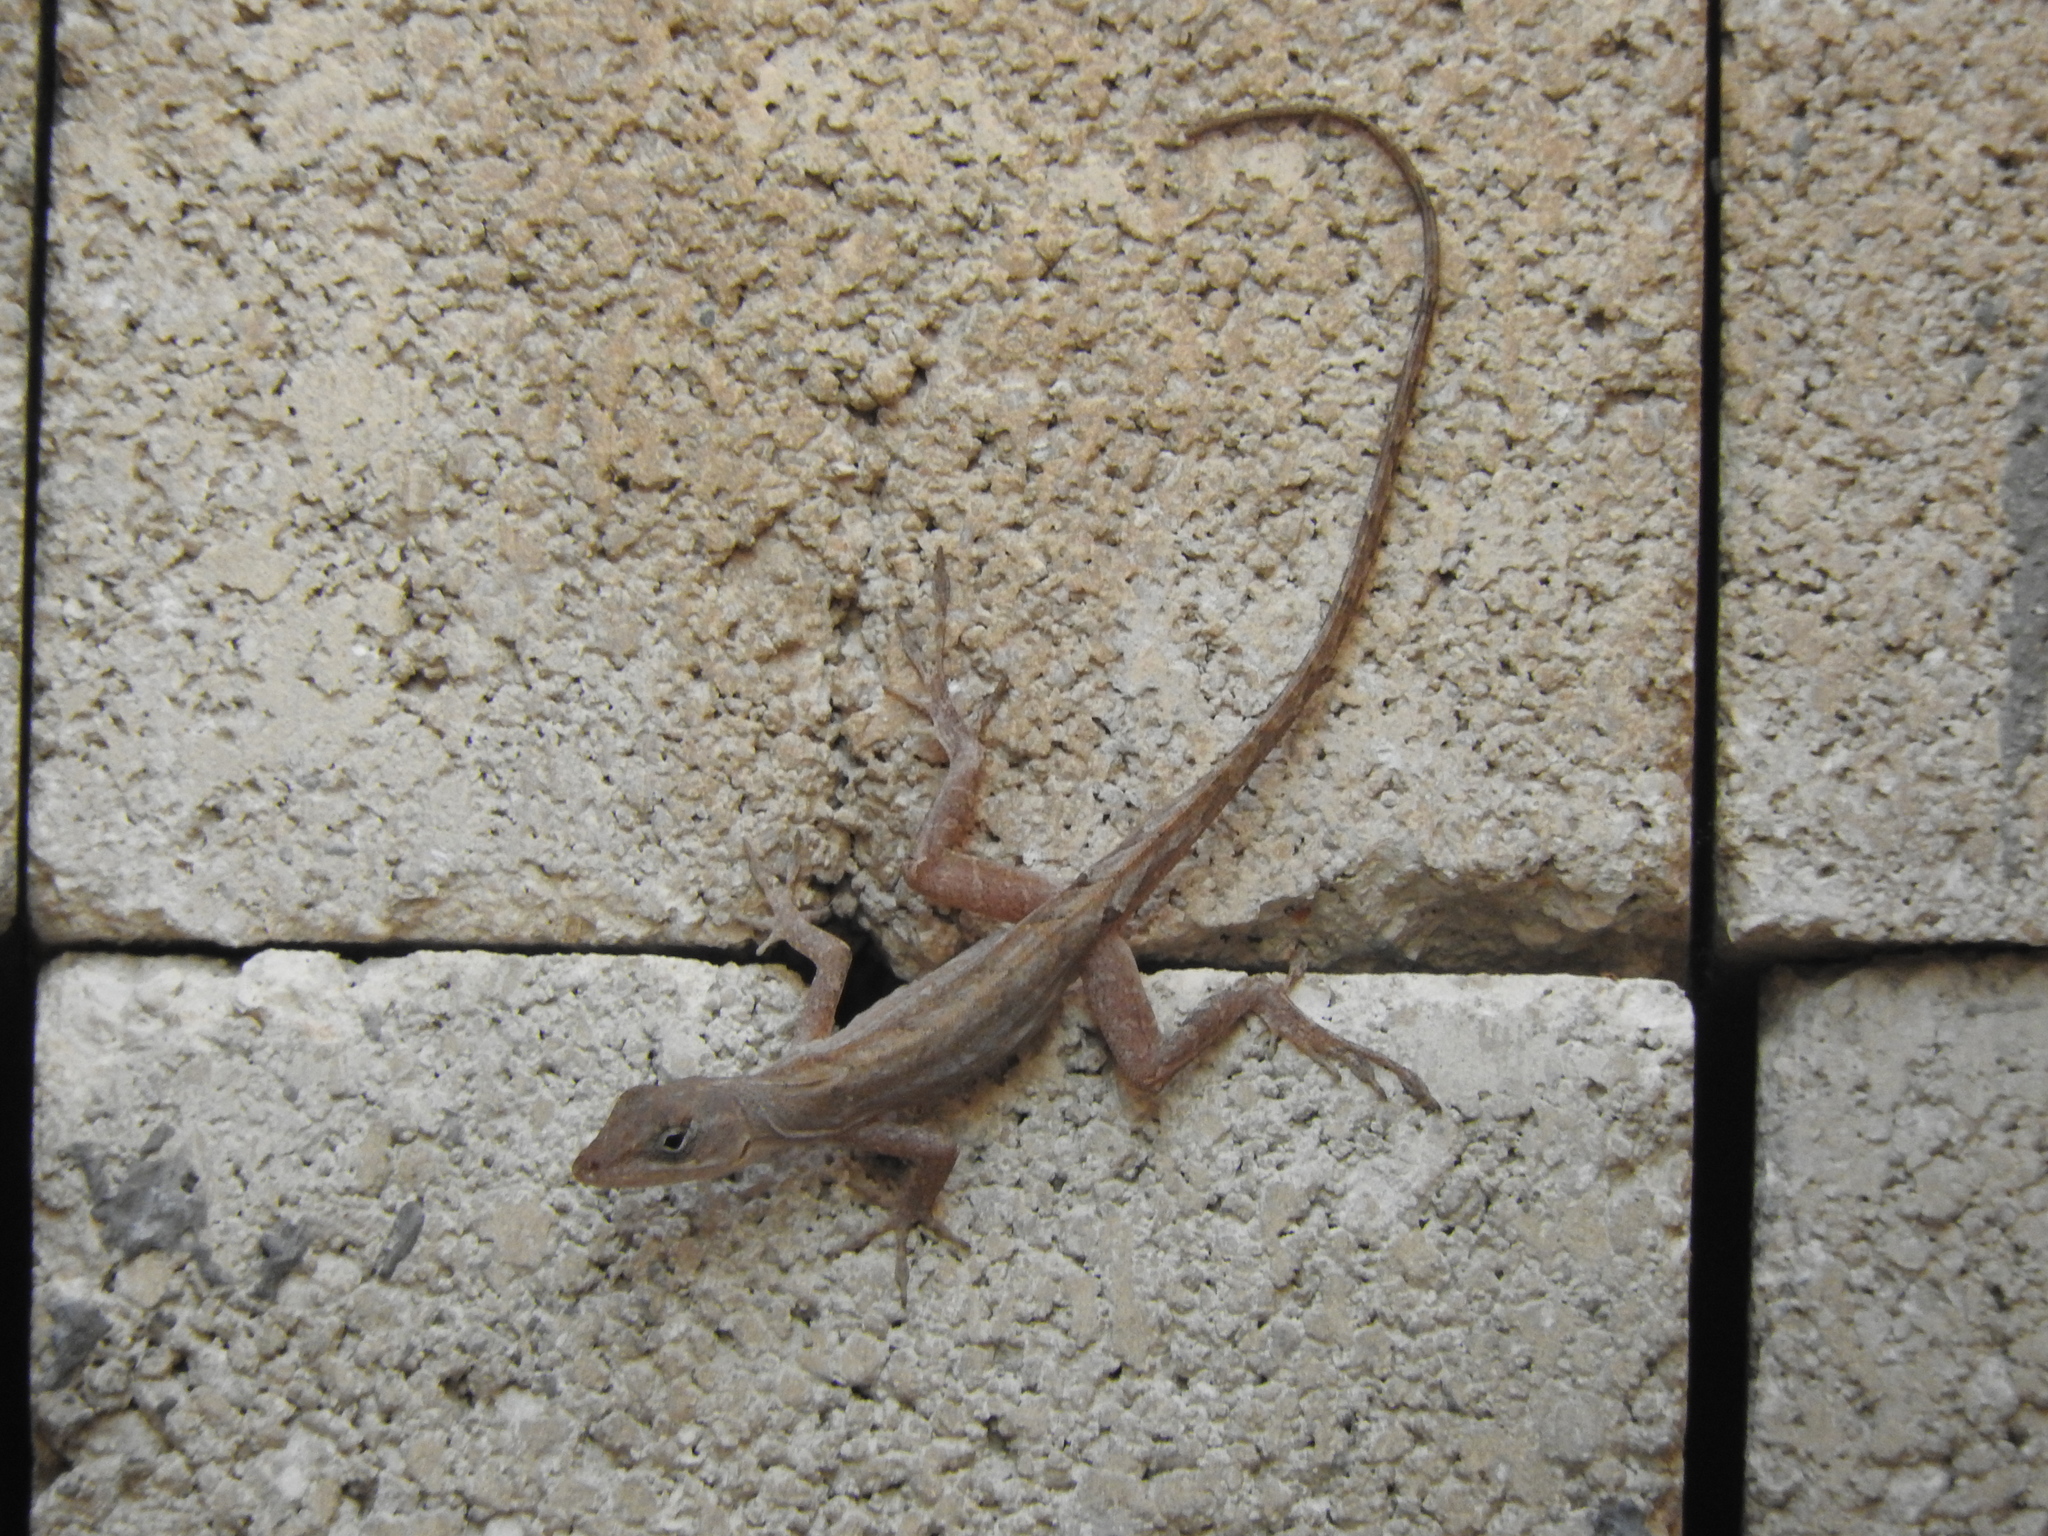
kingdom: Animalia
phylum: Chordata
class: Squamata
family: Dactyloidae
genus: Anolis
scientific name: Anolis sagrei
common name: Brown anole
